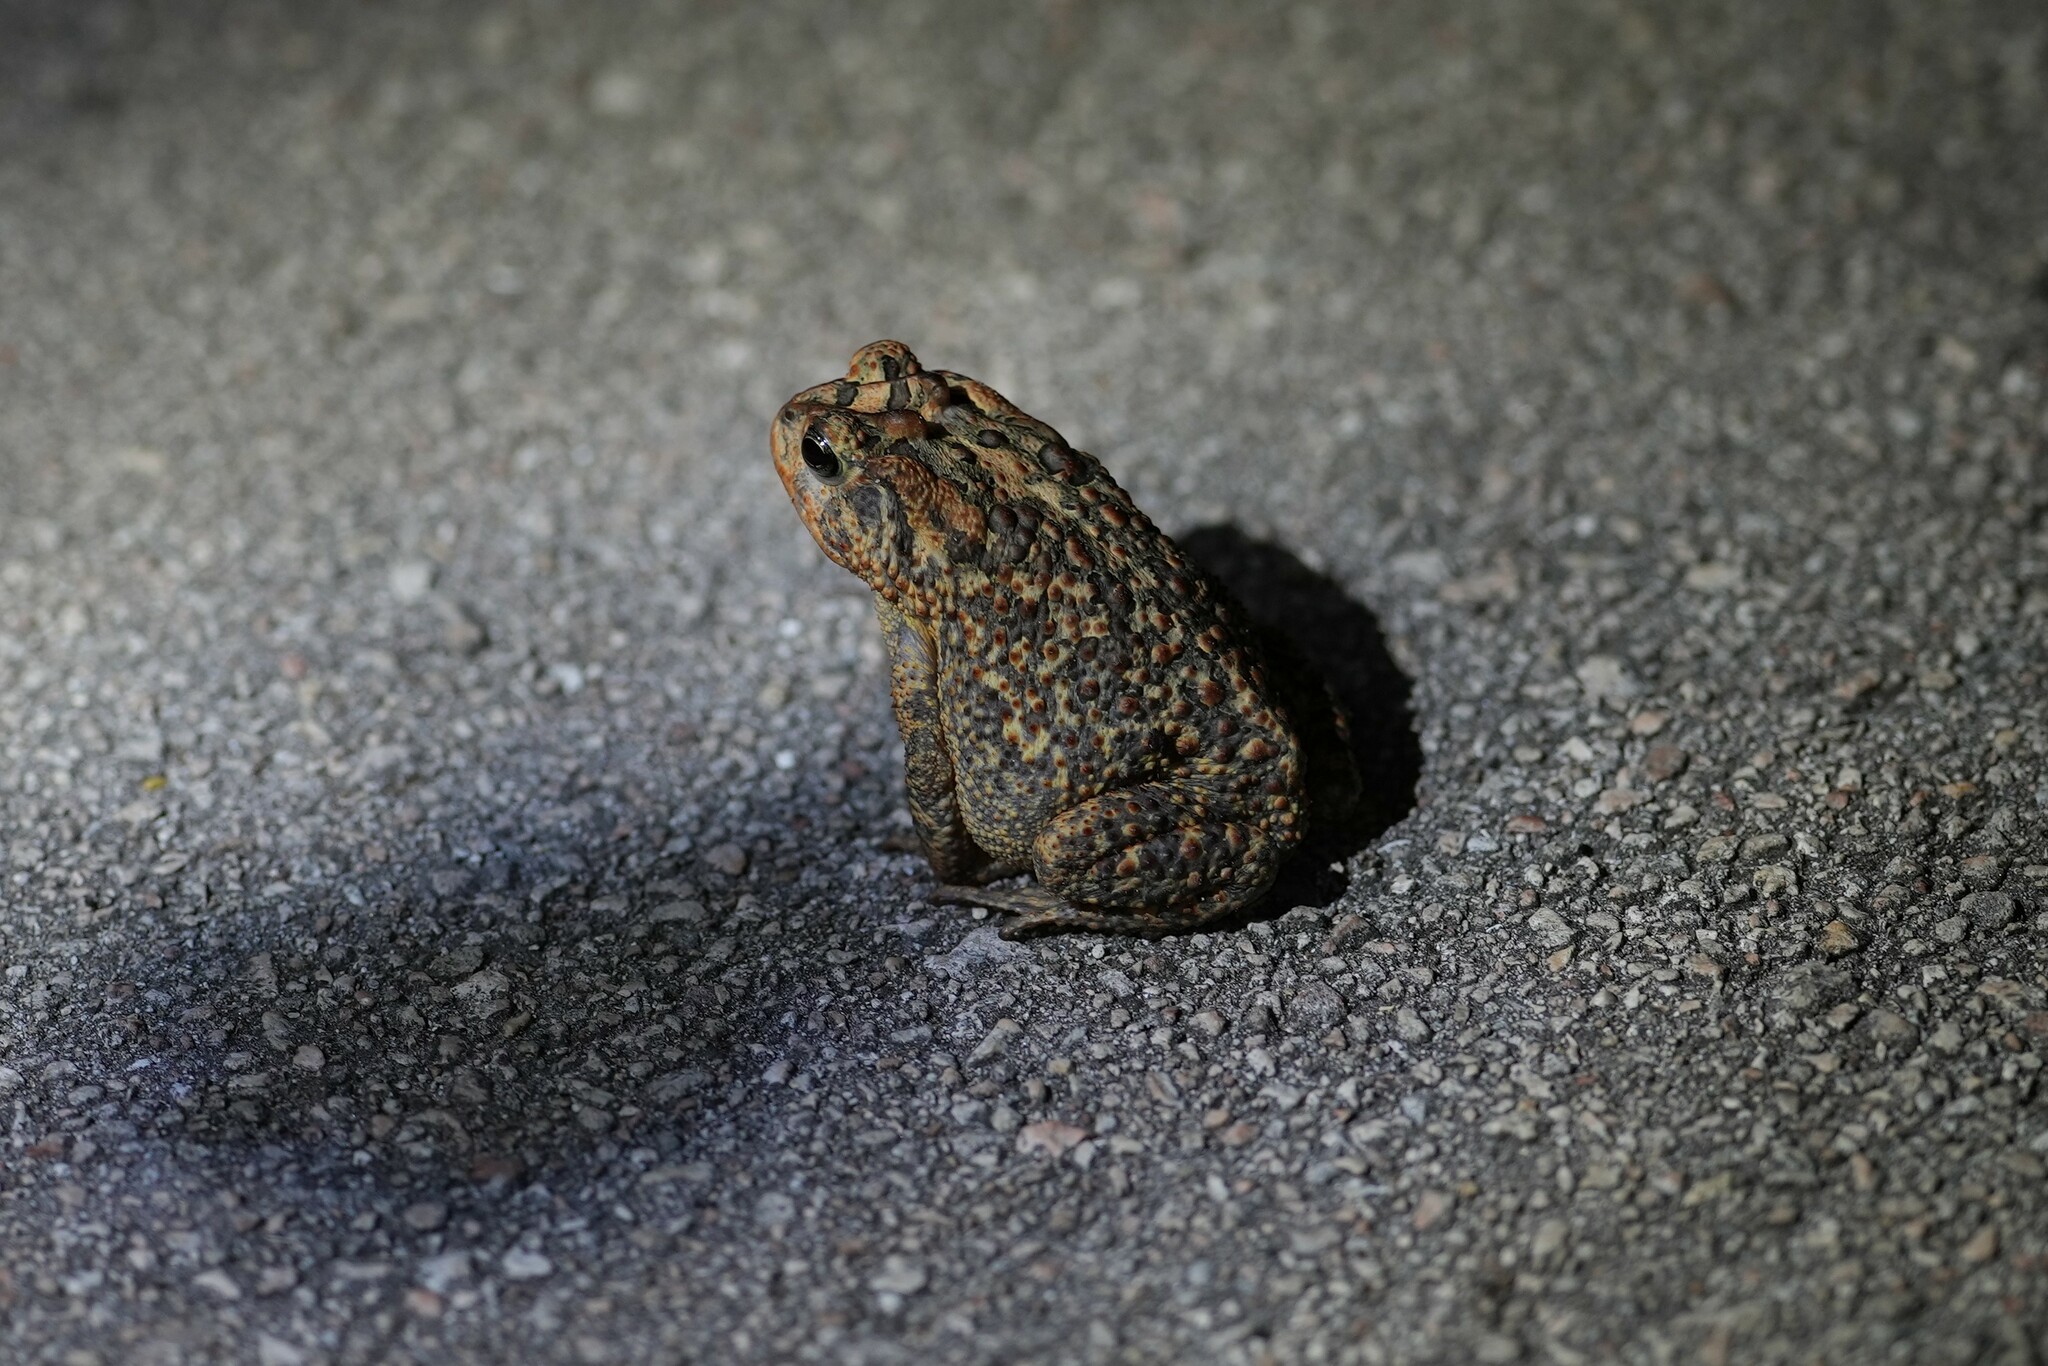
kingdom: Animalia
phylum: Chordata
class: Amphibia
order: Anura
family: Bufonidae
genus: Anaxyrus
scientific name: Anaxyrus terrestris
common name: Southern toad
